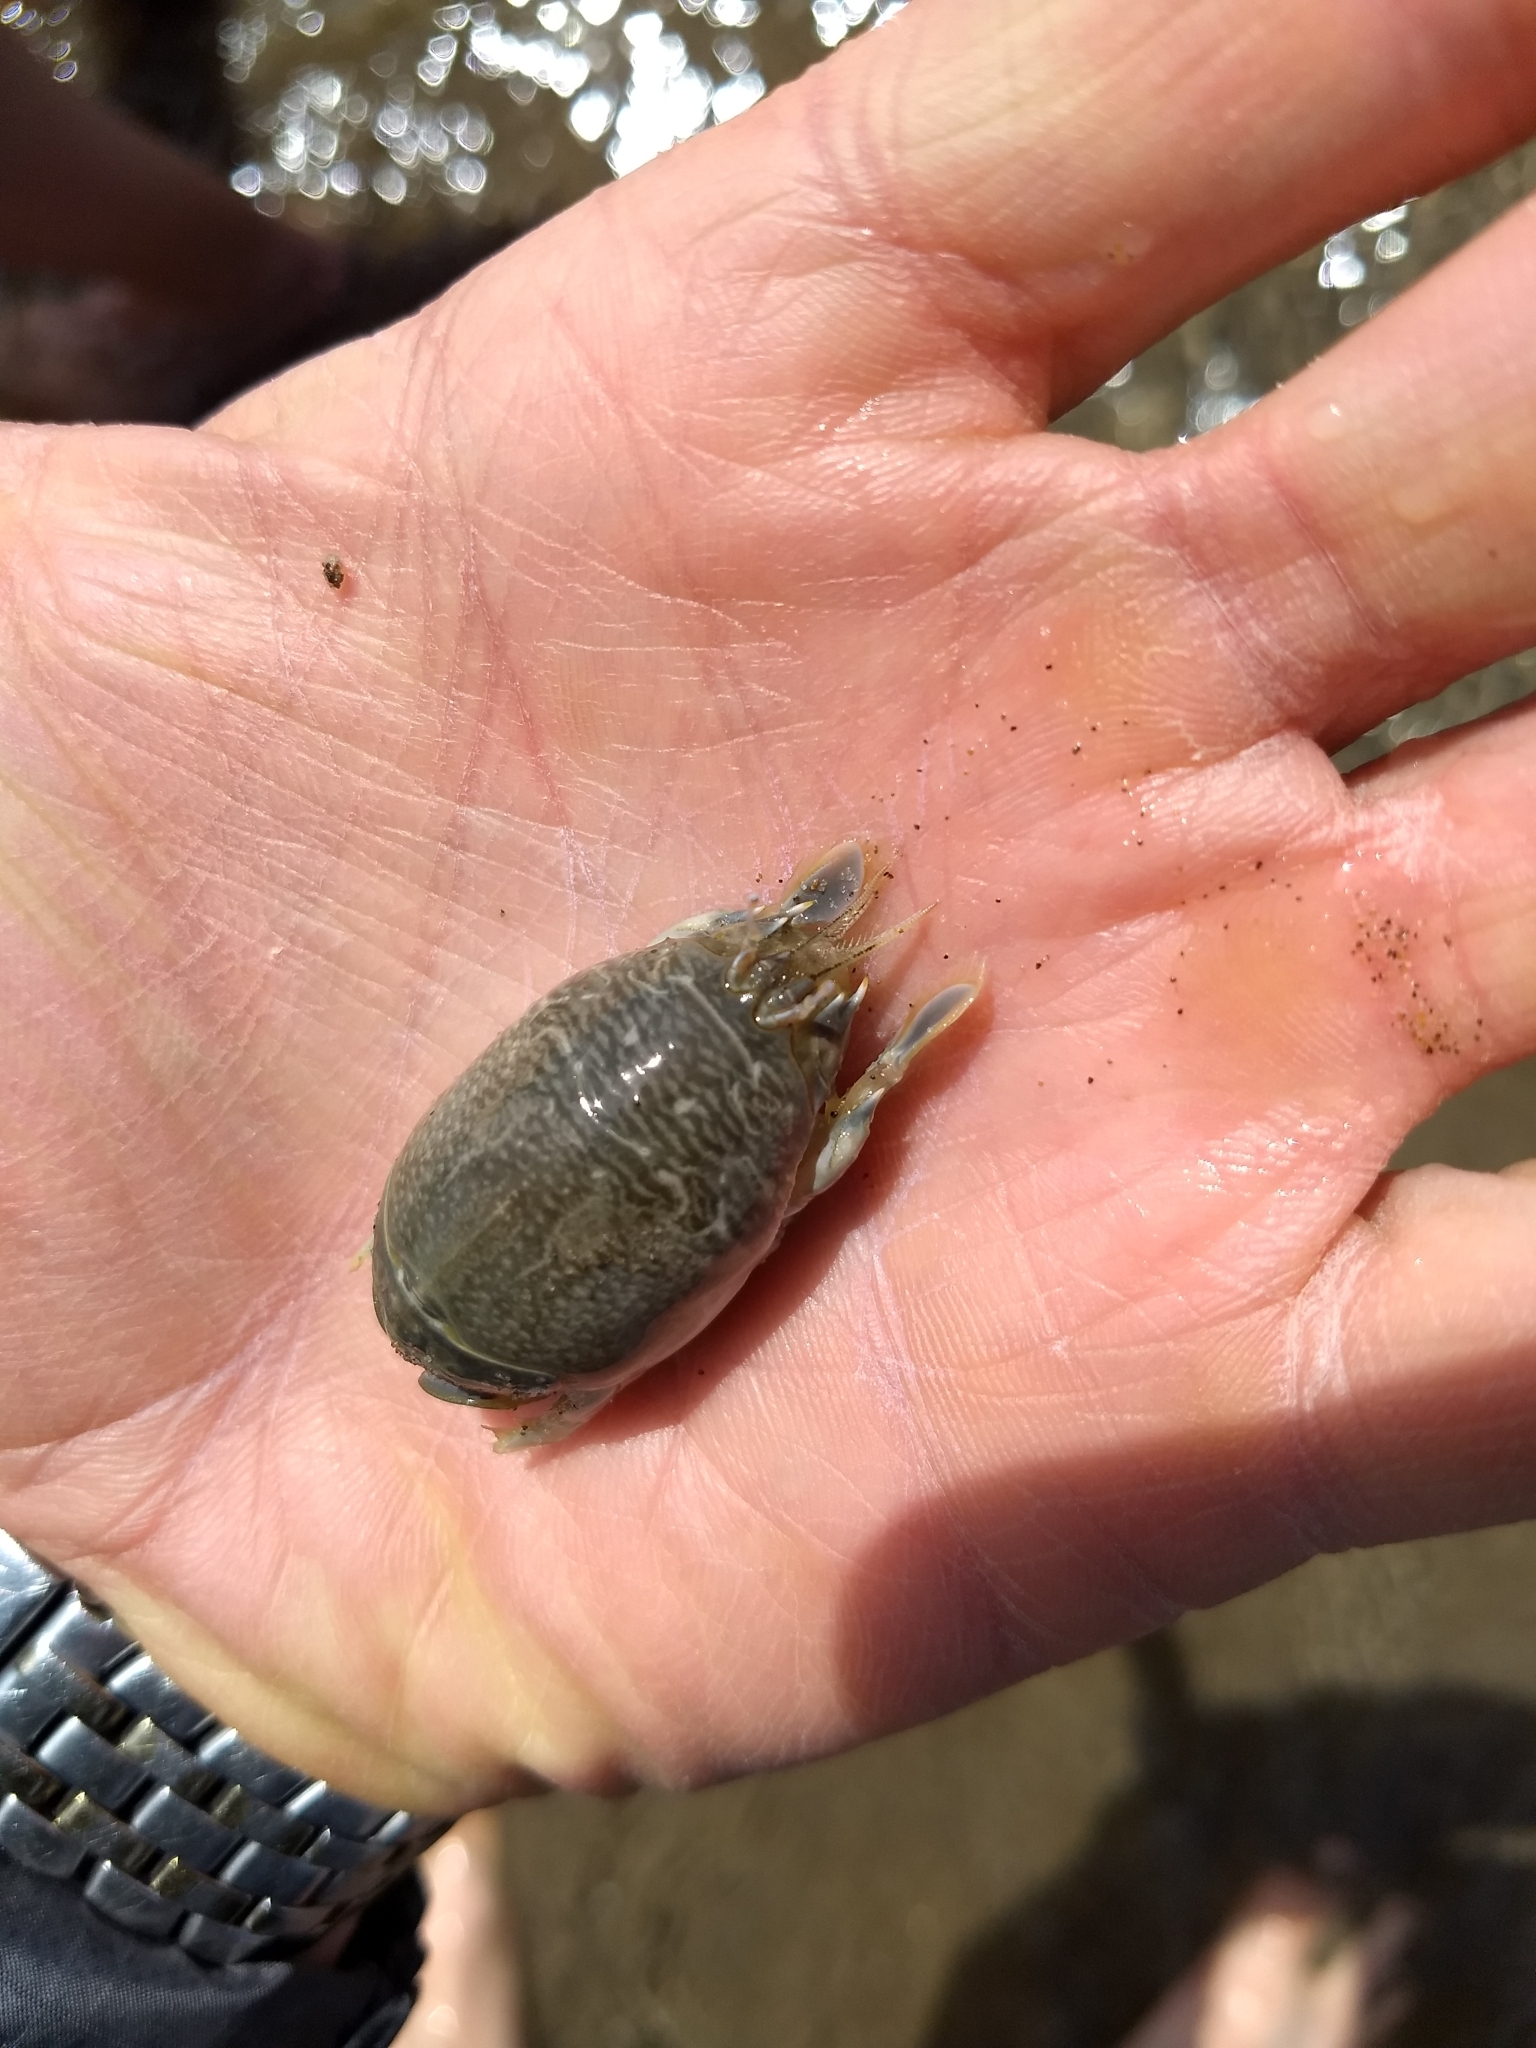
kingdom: Animalia
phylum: Arthropoda
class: Malacostraca
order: Decapoda
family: Hippidae
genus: Emerita
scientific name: Emerita analoga
